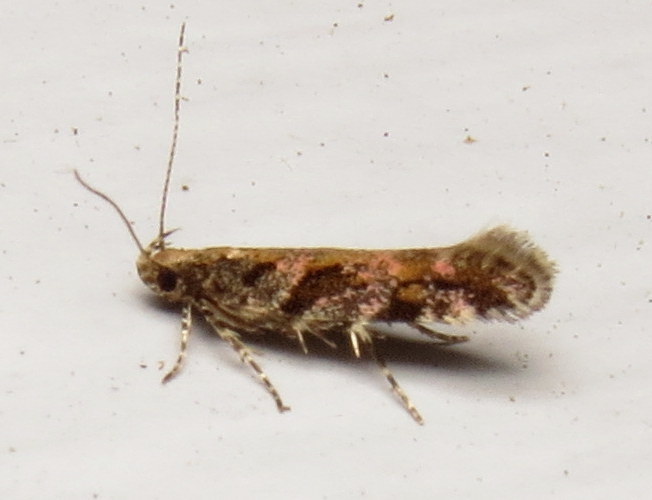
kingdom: Animalia
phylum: Arthropoda
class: Insecta
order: Lepidoptera
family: Gelechiidae
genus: Aristotelia
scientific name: Aristotelia rubidella
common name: Ruby aristotelia moth
